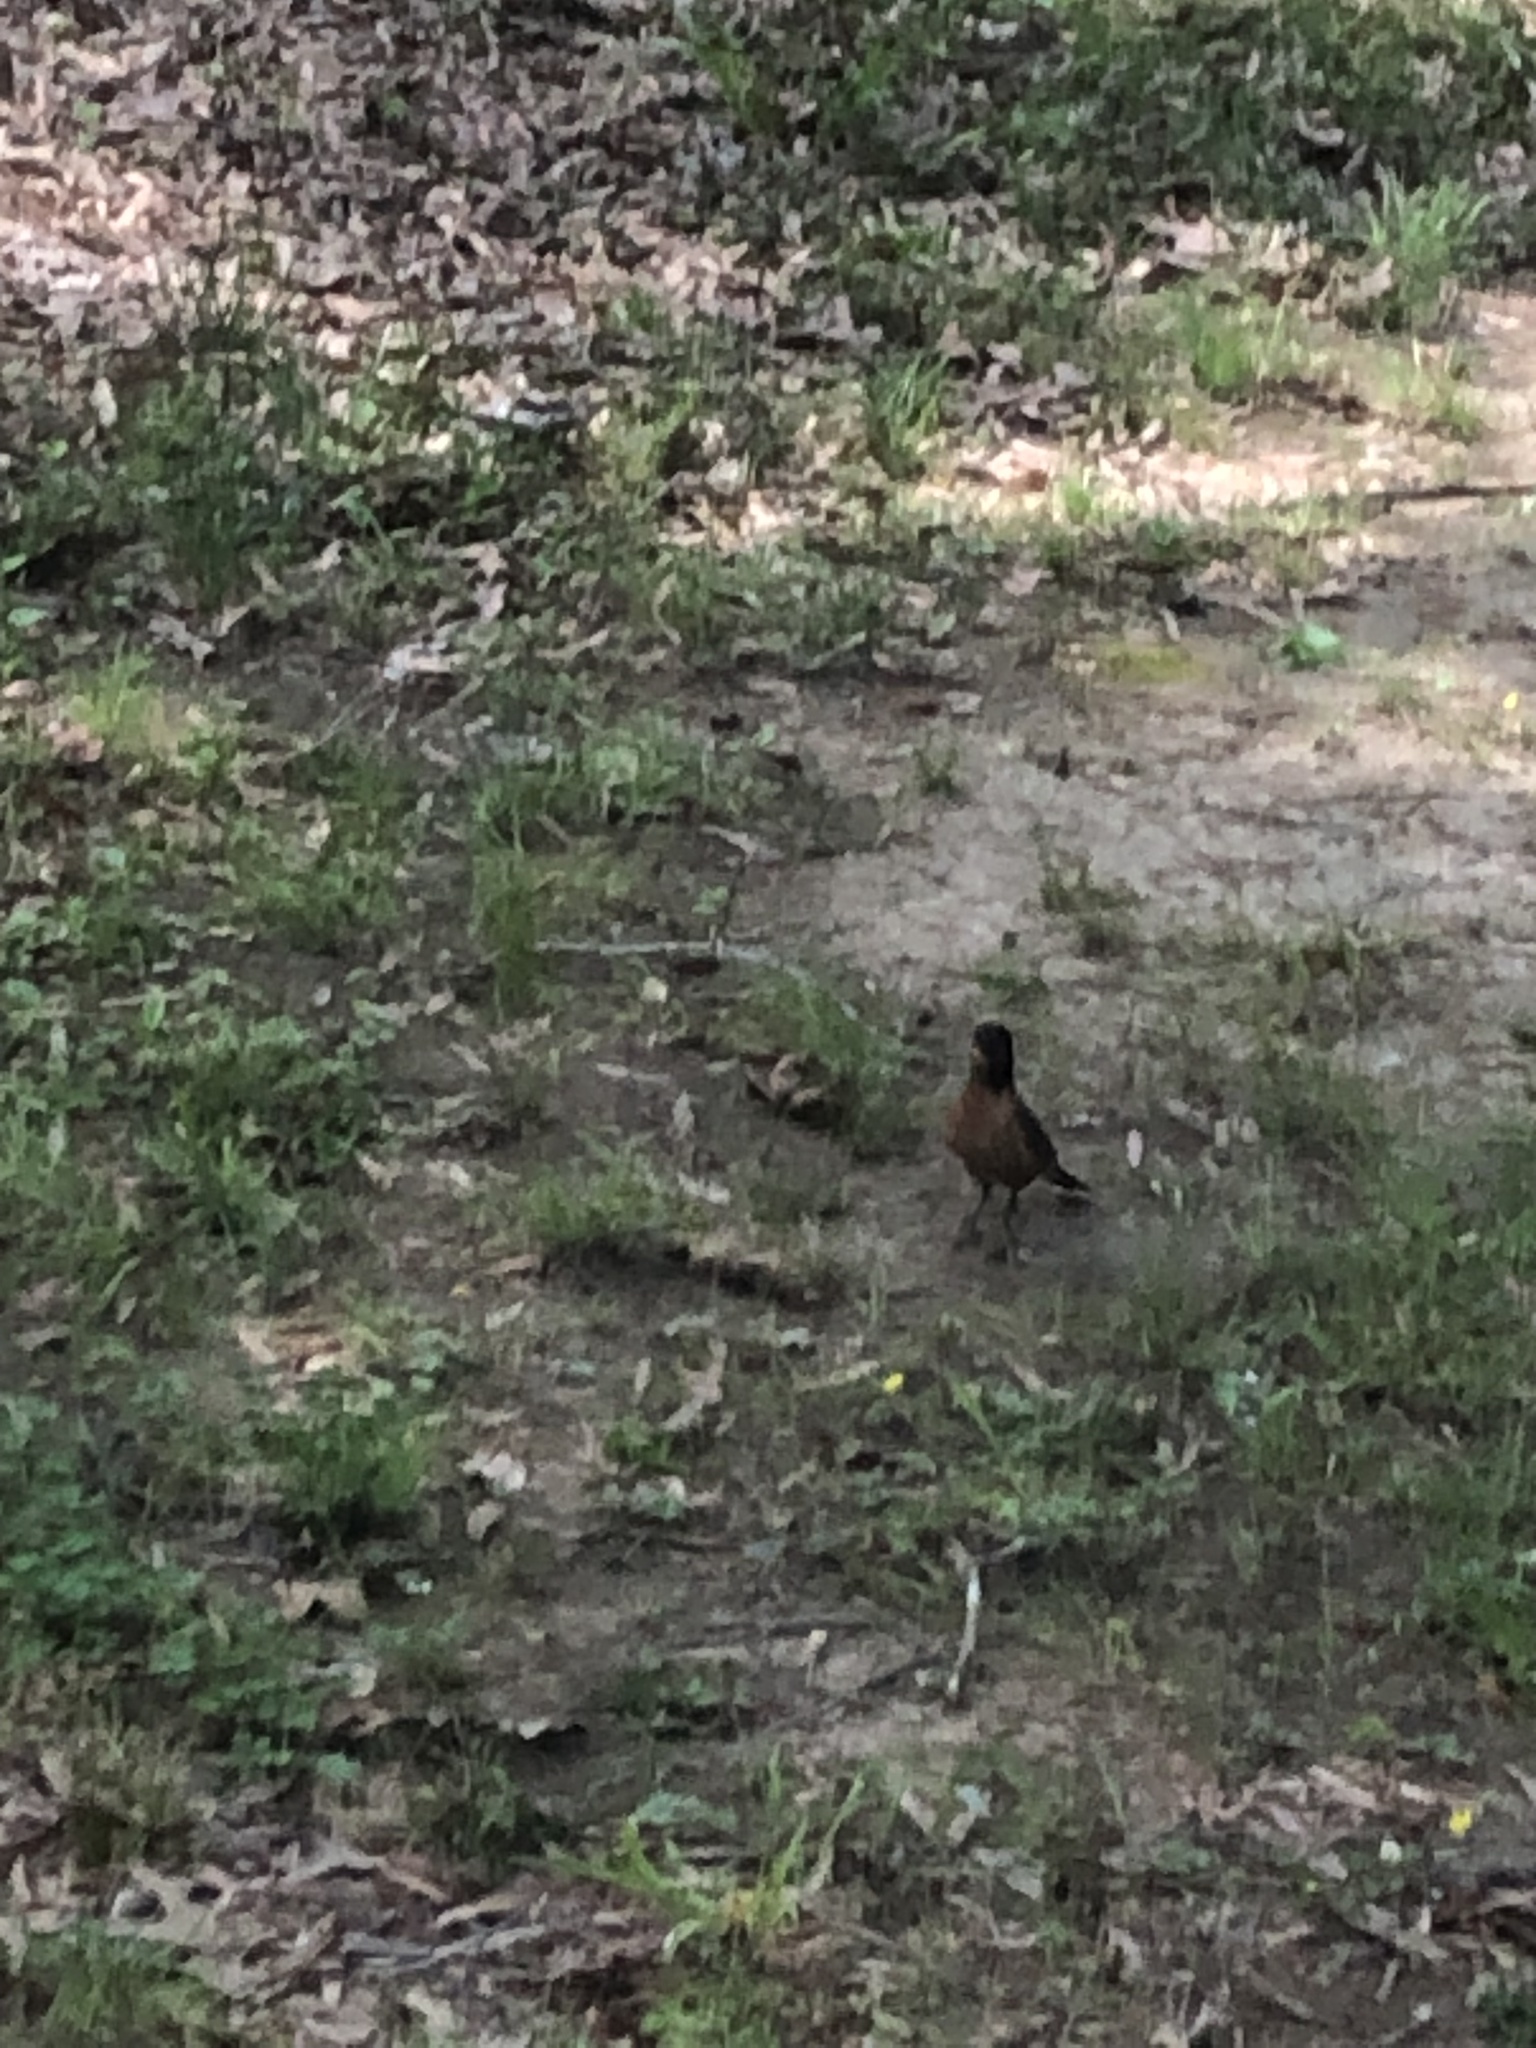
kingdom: Animalia
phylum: Chordata
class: Aves
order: Passeriformes
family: Turdidae
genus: Turdus
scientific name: Turdus migratorius
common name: American robin
